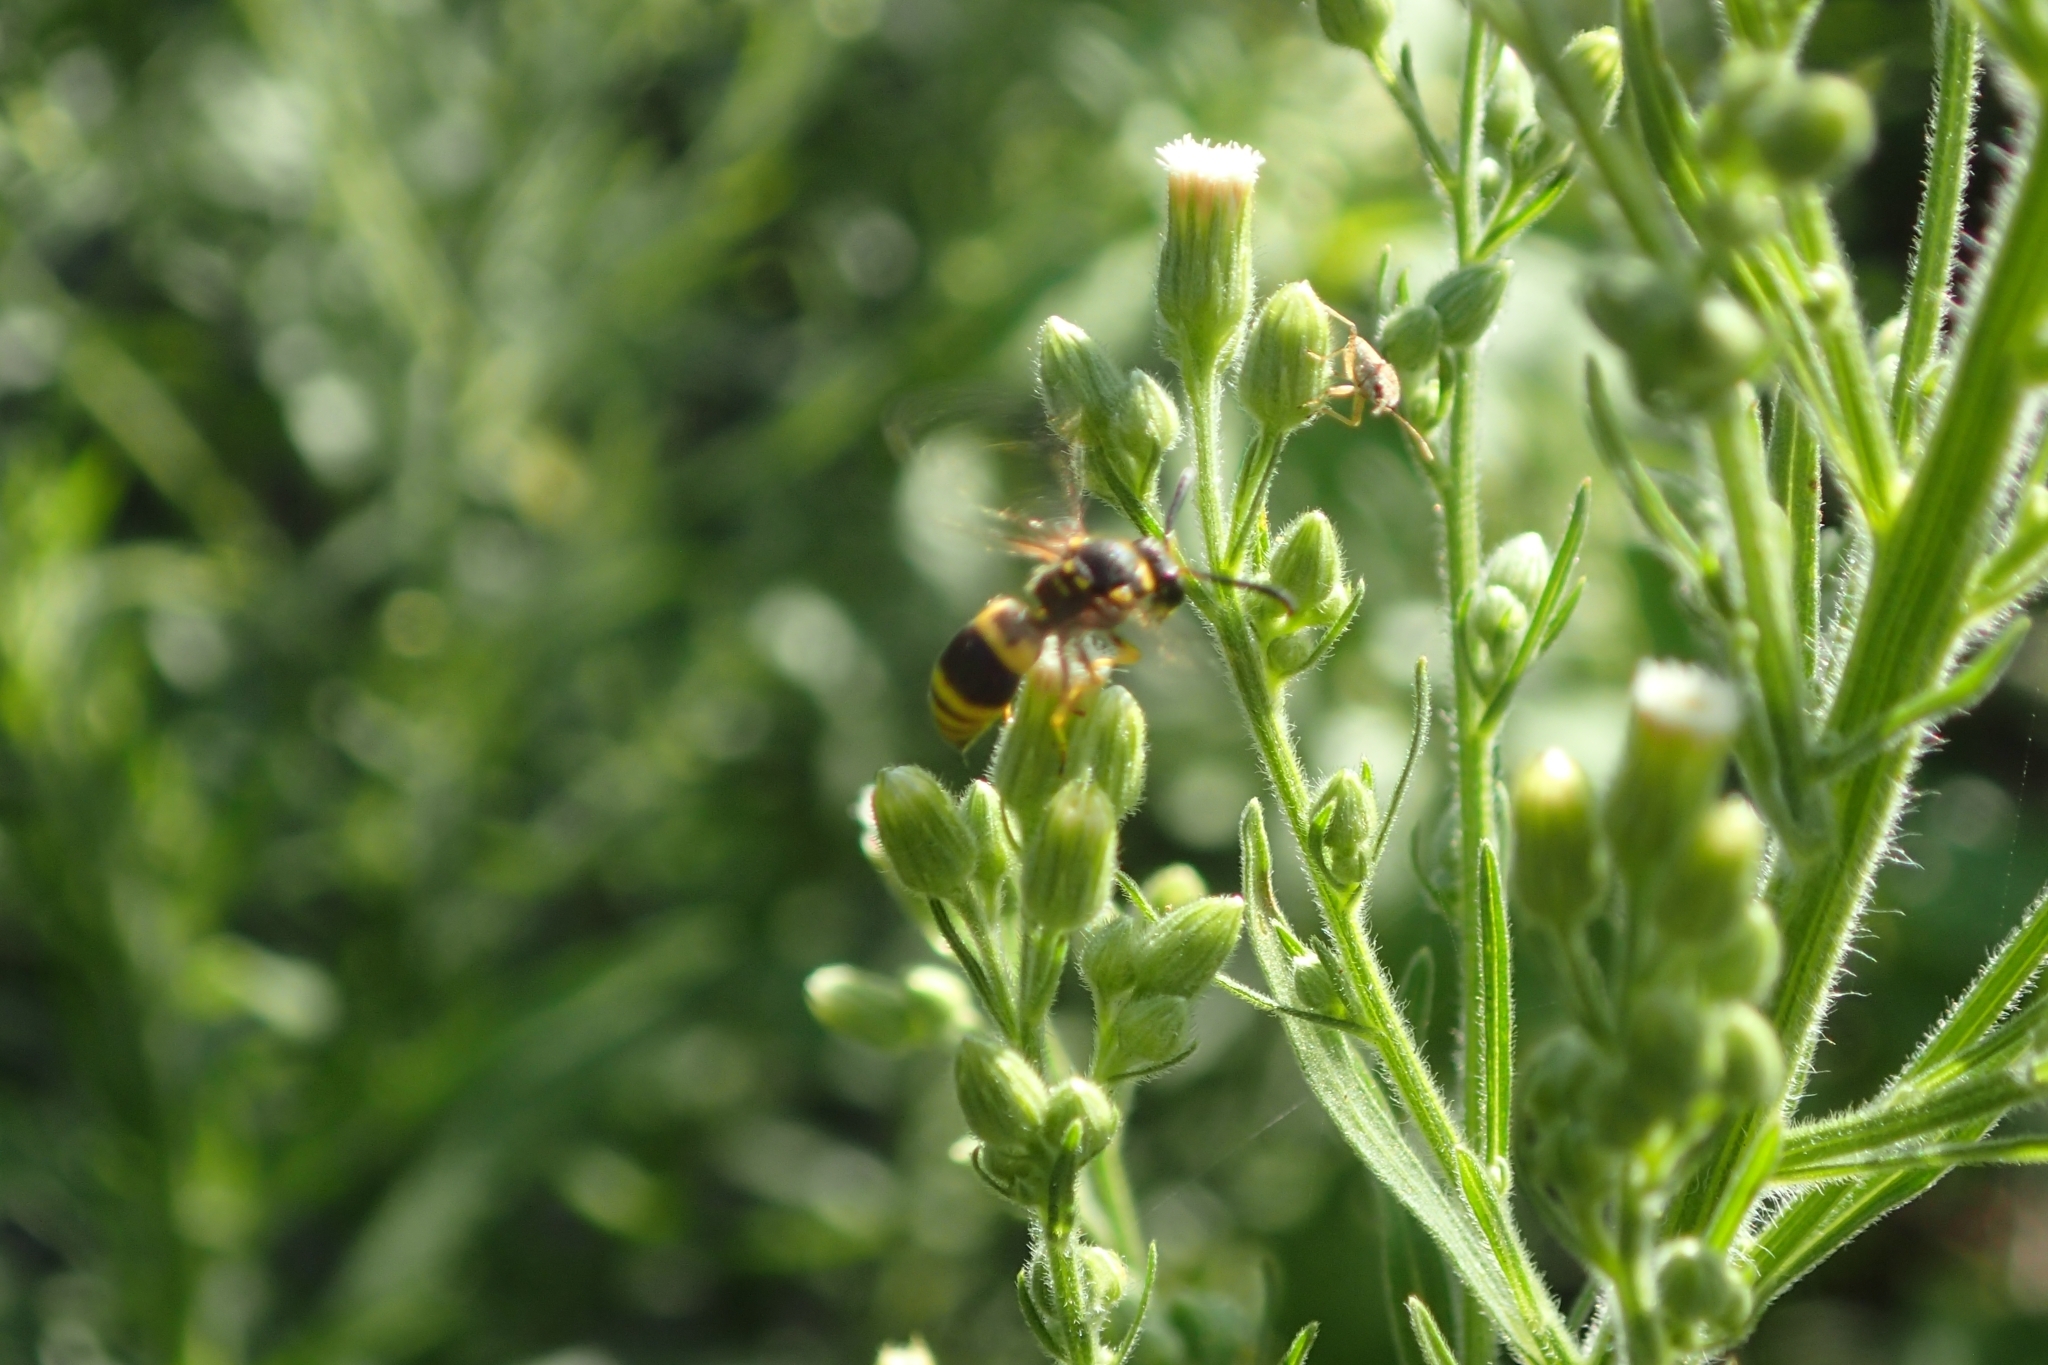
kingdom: Animalia
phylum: Arthropoda
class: Insecta
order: Hymenoptera
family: Vespidae
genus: Ancistrocerus
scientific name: Ancistrocerus gazella
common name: European tube wasp
